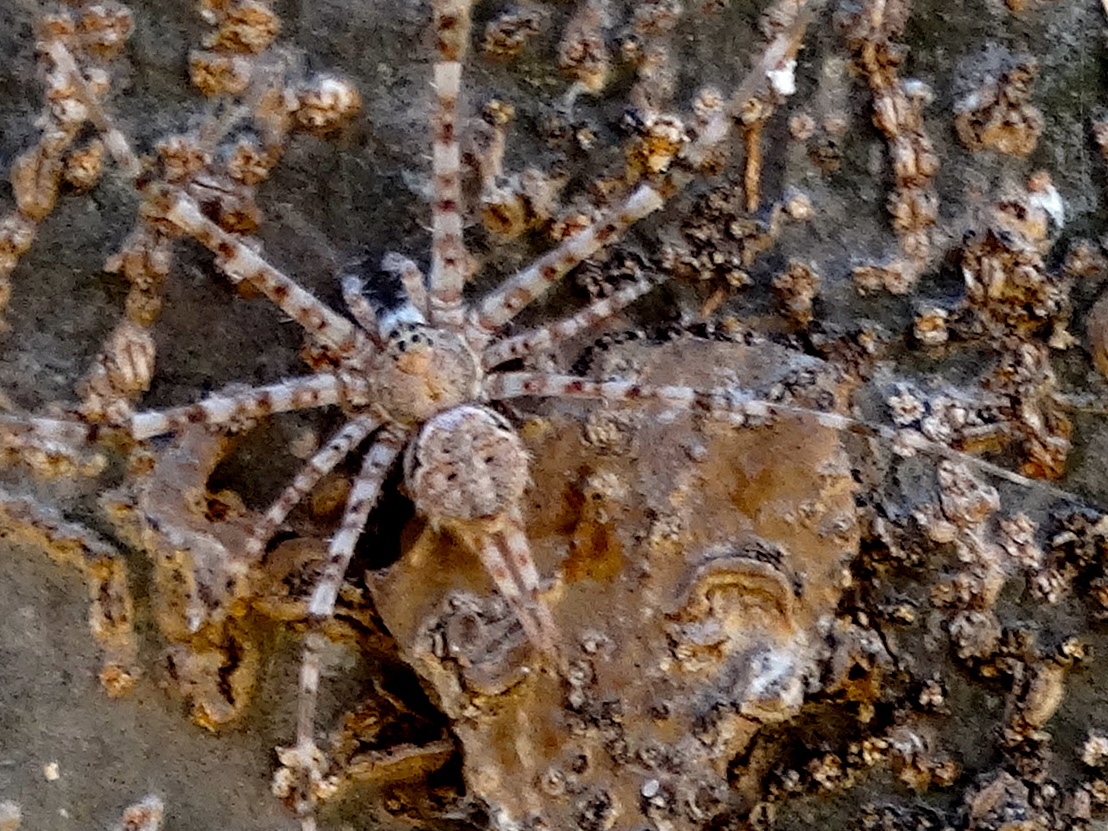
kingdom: Animalia
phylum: Arthropoda
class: Arachnida
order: Araneae
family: Hersiliidae
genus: Neotama
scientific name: Neotama mexicana
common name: Tree trunk spiders
